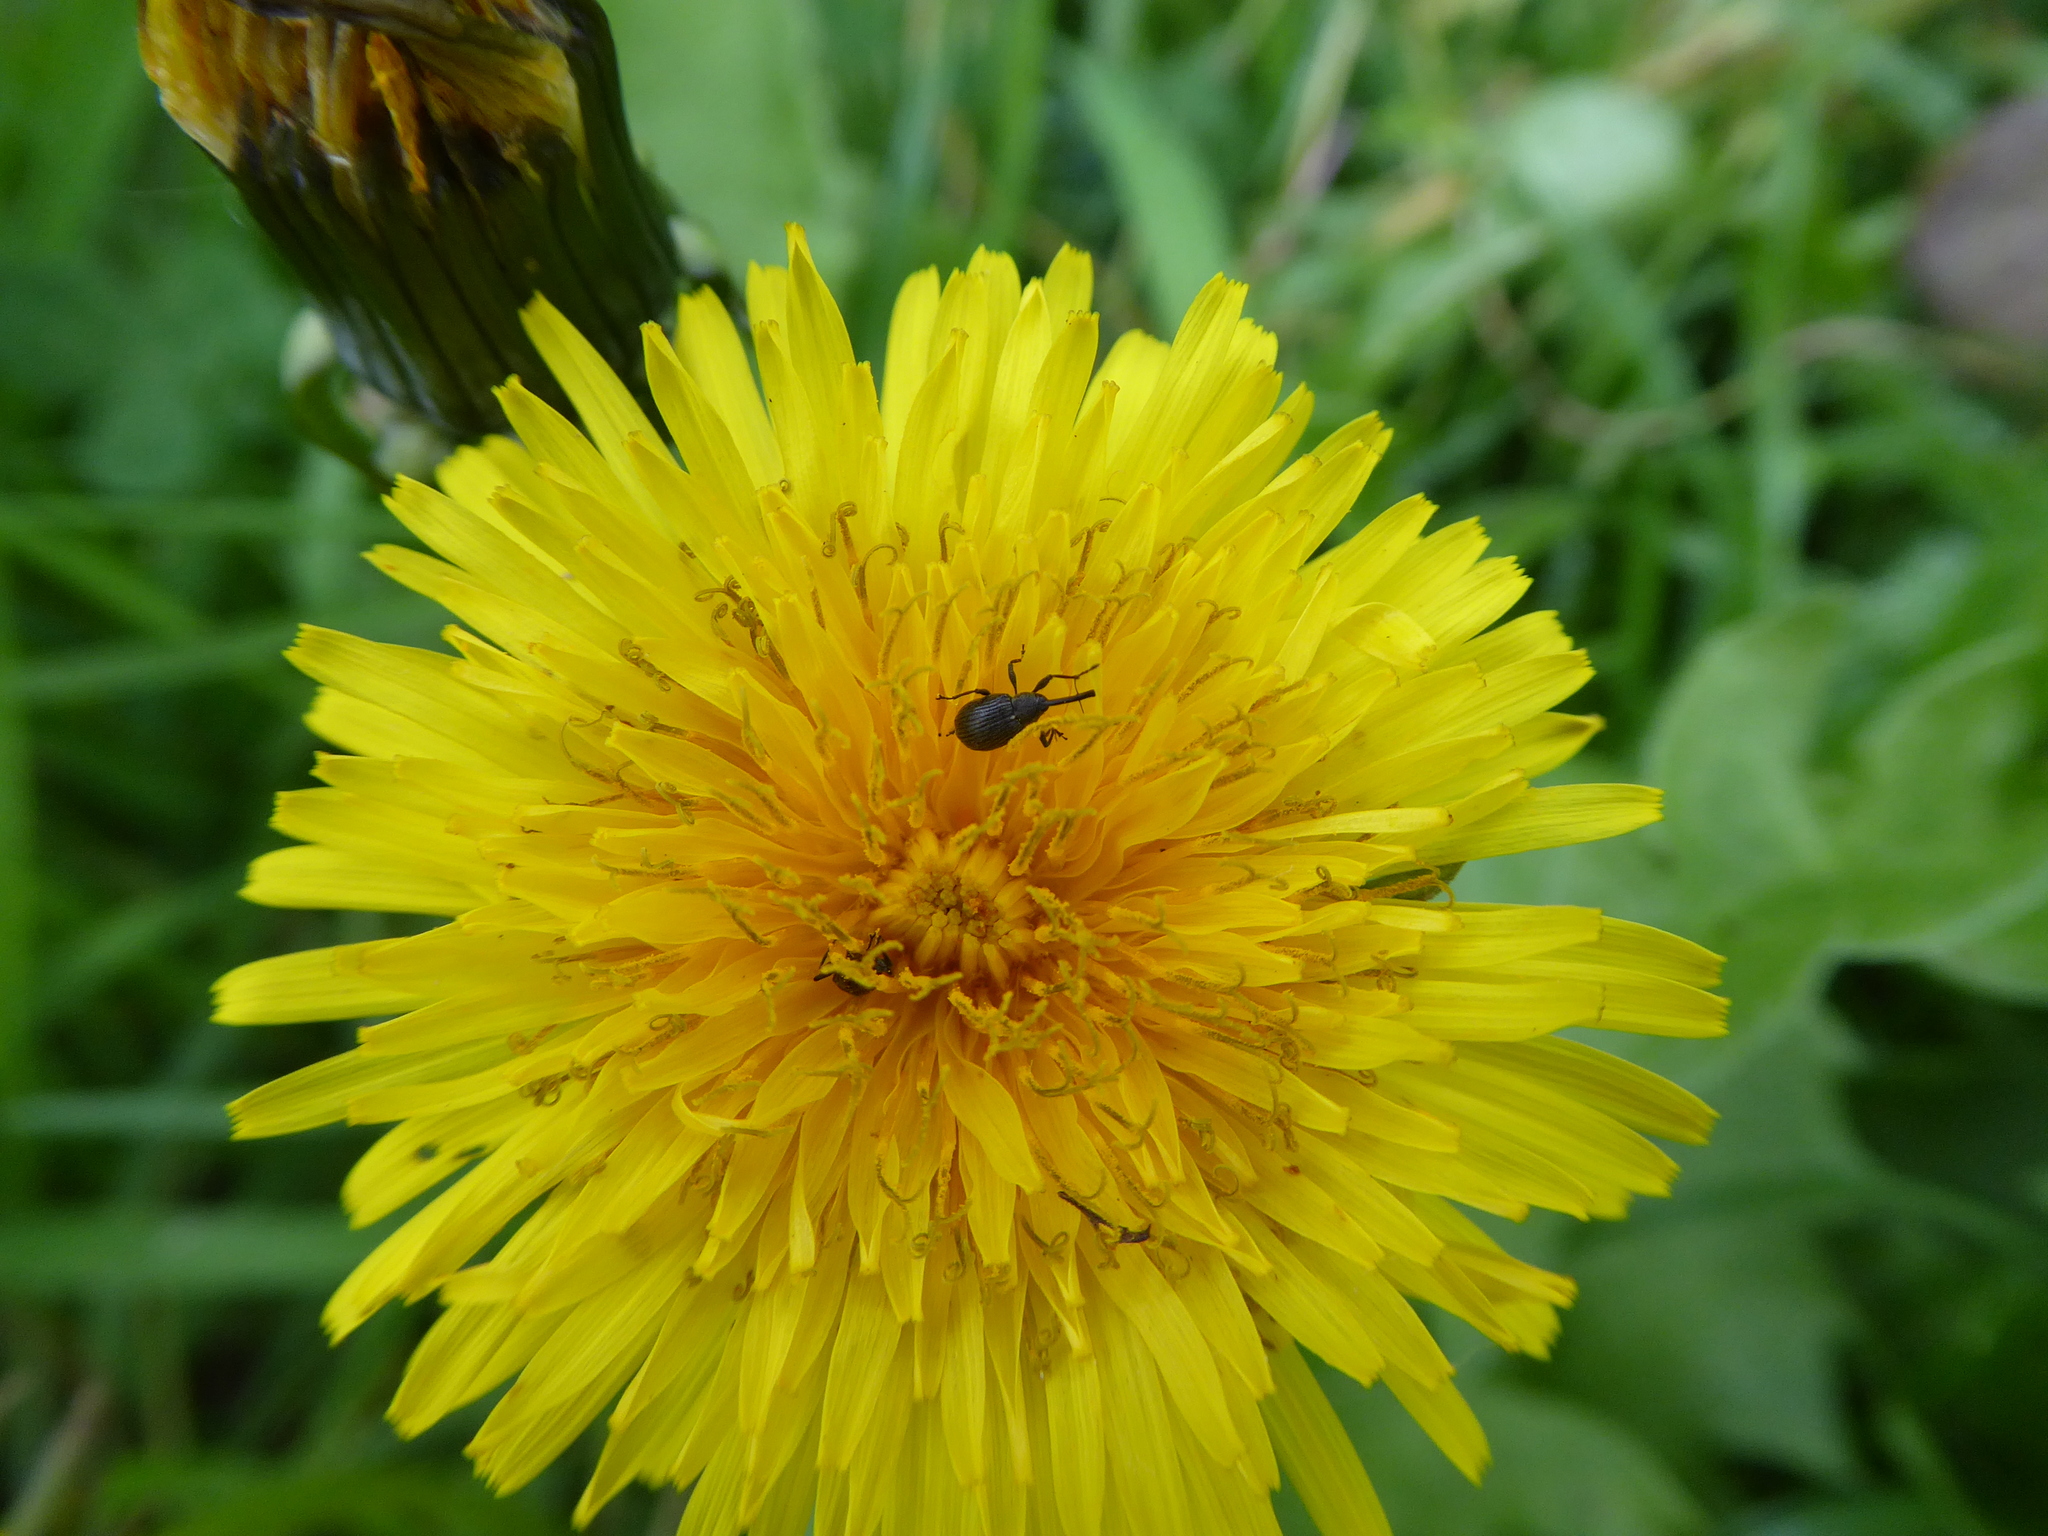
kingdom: Animalia
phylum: Arthropoda
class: Insecta
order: Coleoptera
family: Curculionidae
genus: Anthonomus
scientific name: Anthonomus rubi
